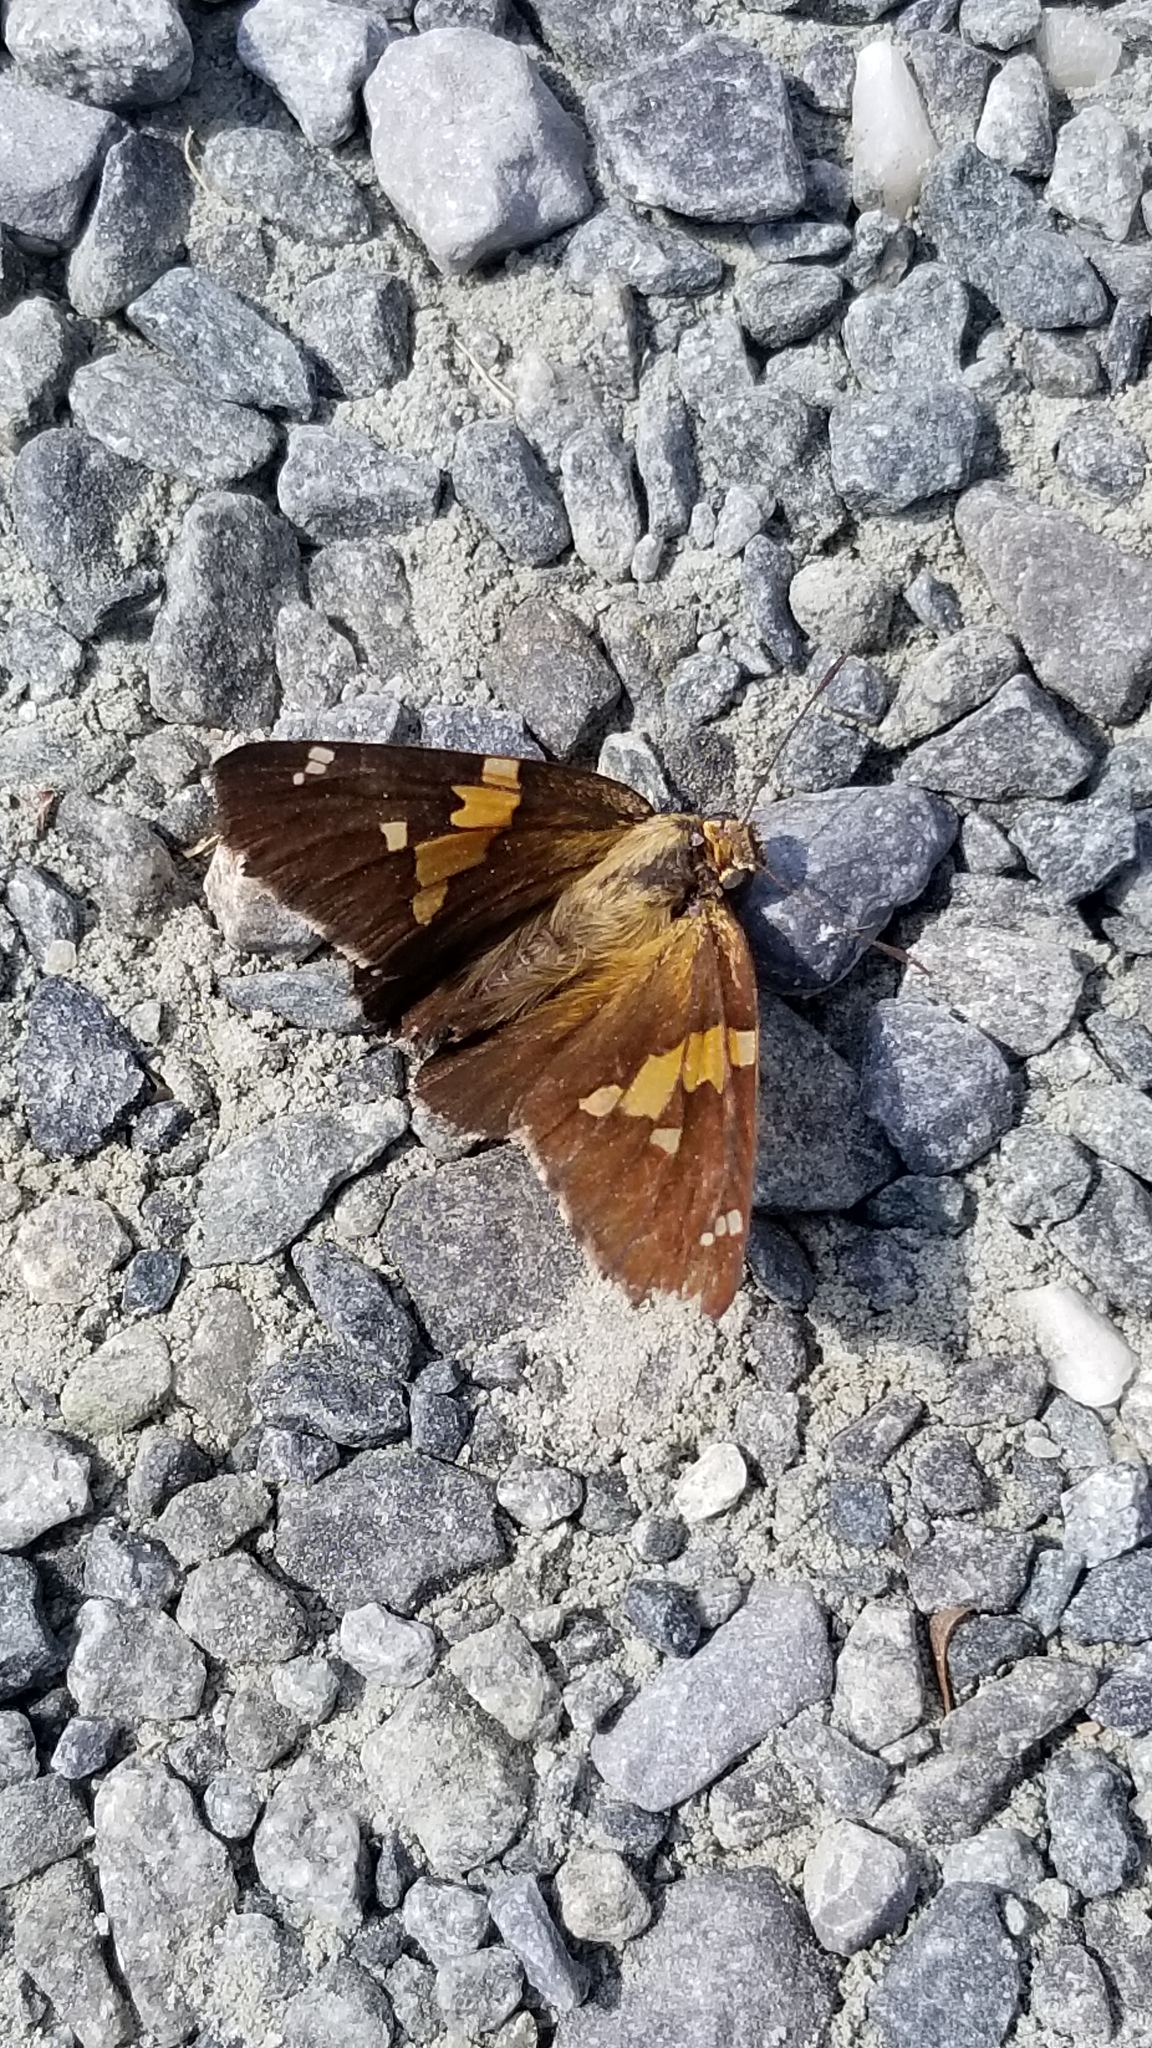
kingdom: Animalia
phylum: Arthropoda
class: Insecta
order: Lepidoptera
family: Hesperiidae
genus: Epargyreus
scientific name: Epargyreus clarus
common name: Silver-spotted skipper
